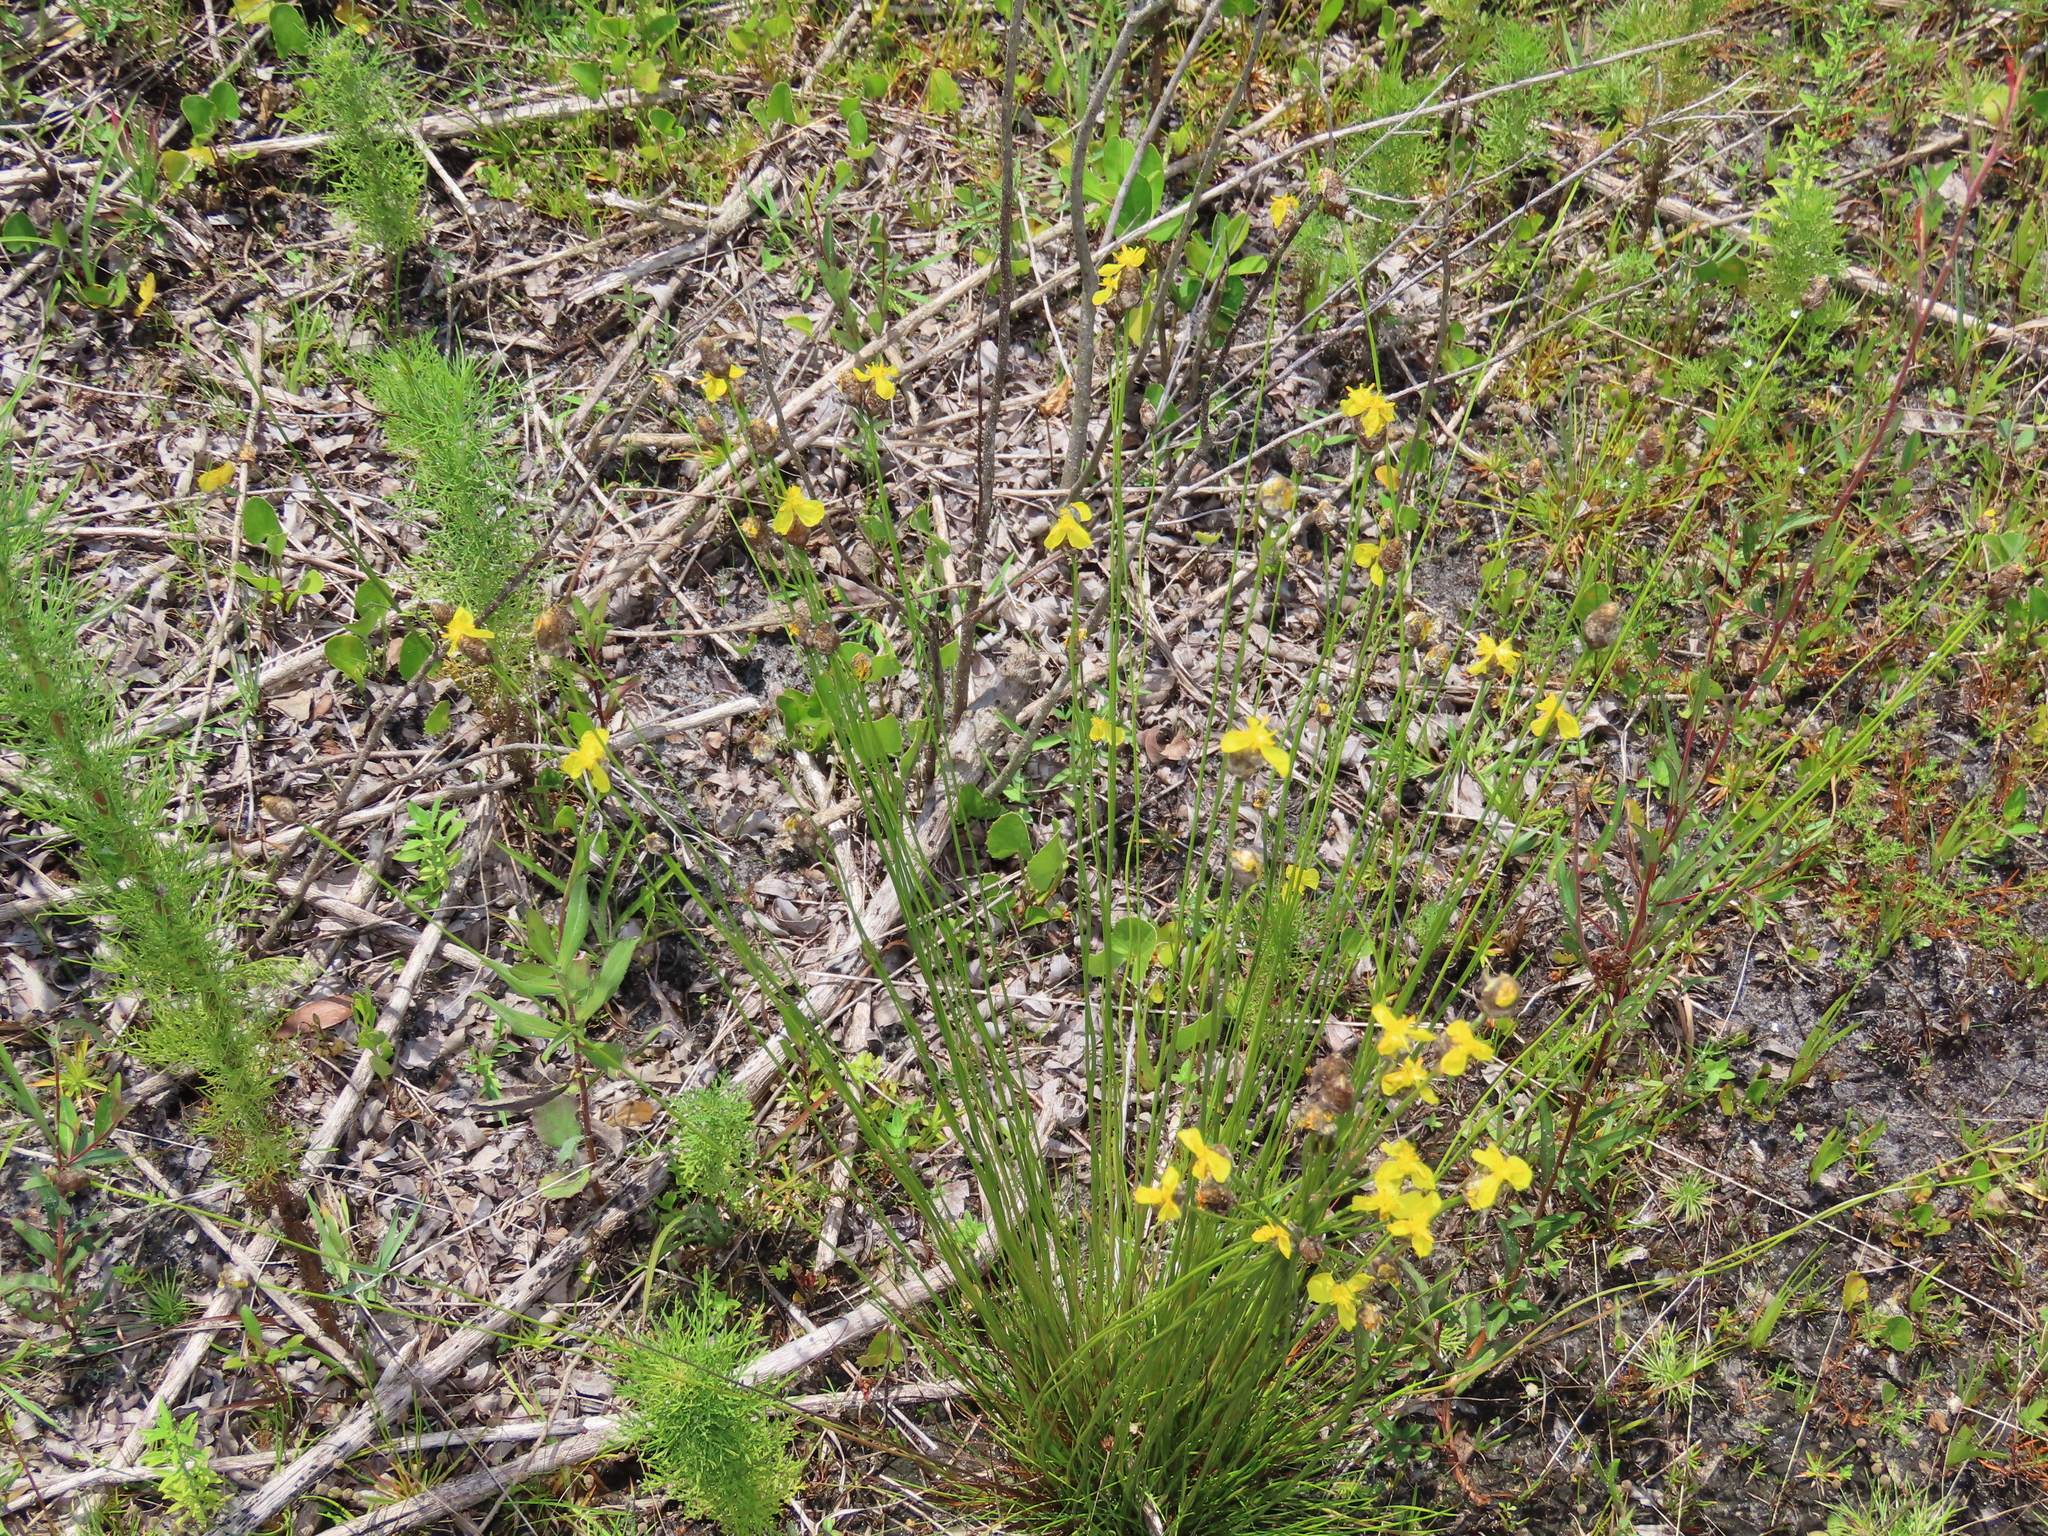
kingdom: Plantae
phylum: Tracheophyta
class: Liliopsida
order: Poales
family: Xyridaceae
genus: Xyris
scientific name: Xyris stenotera
